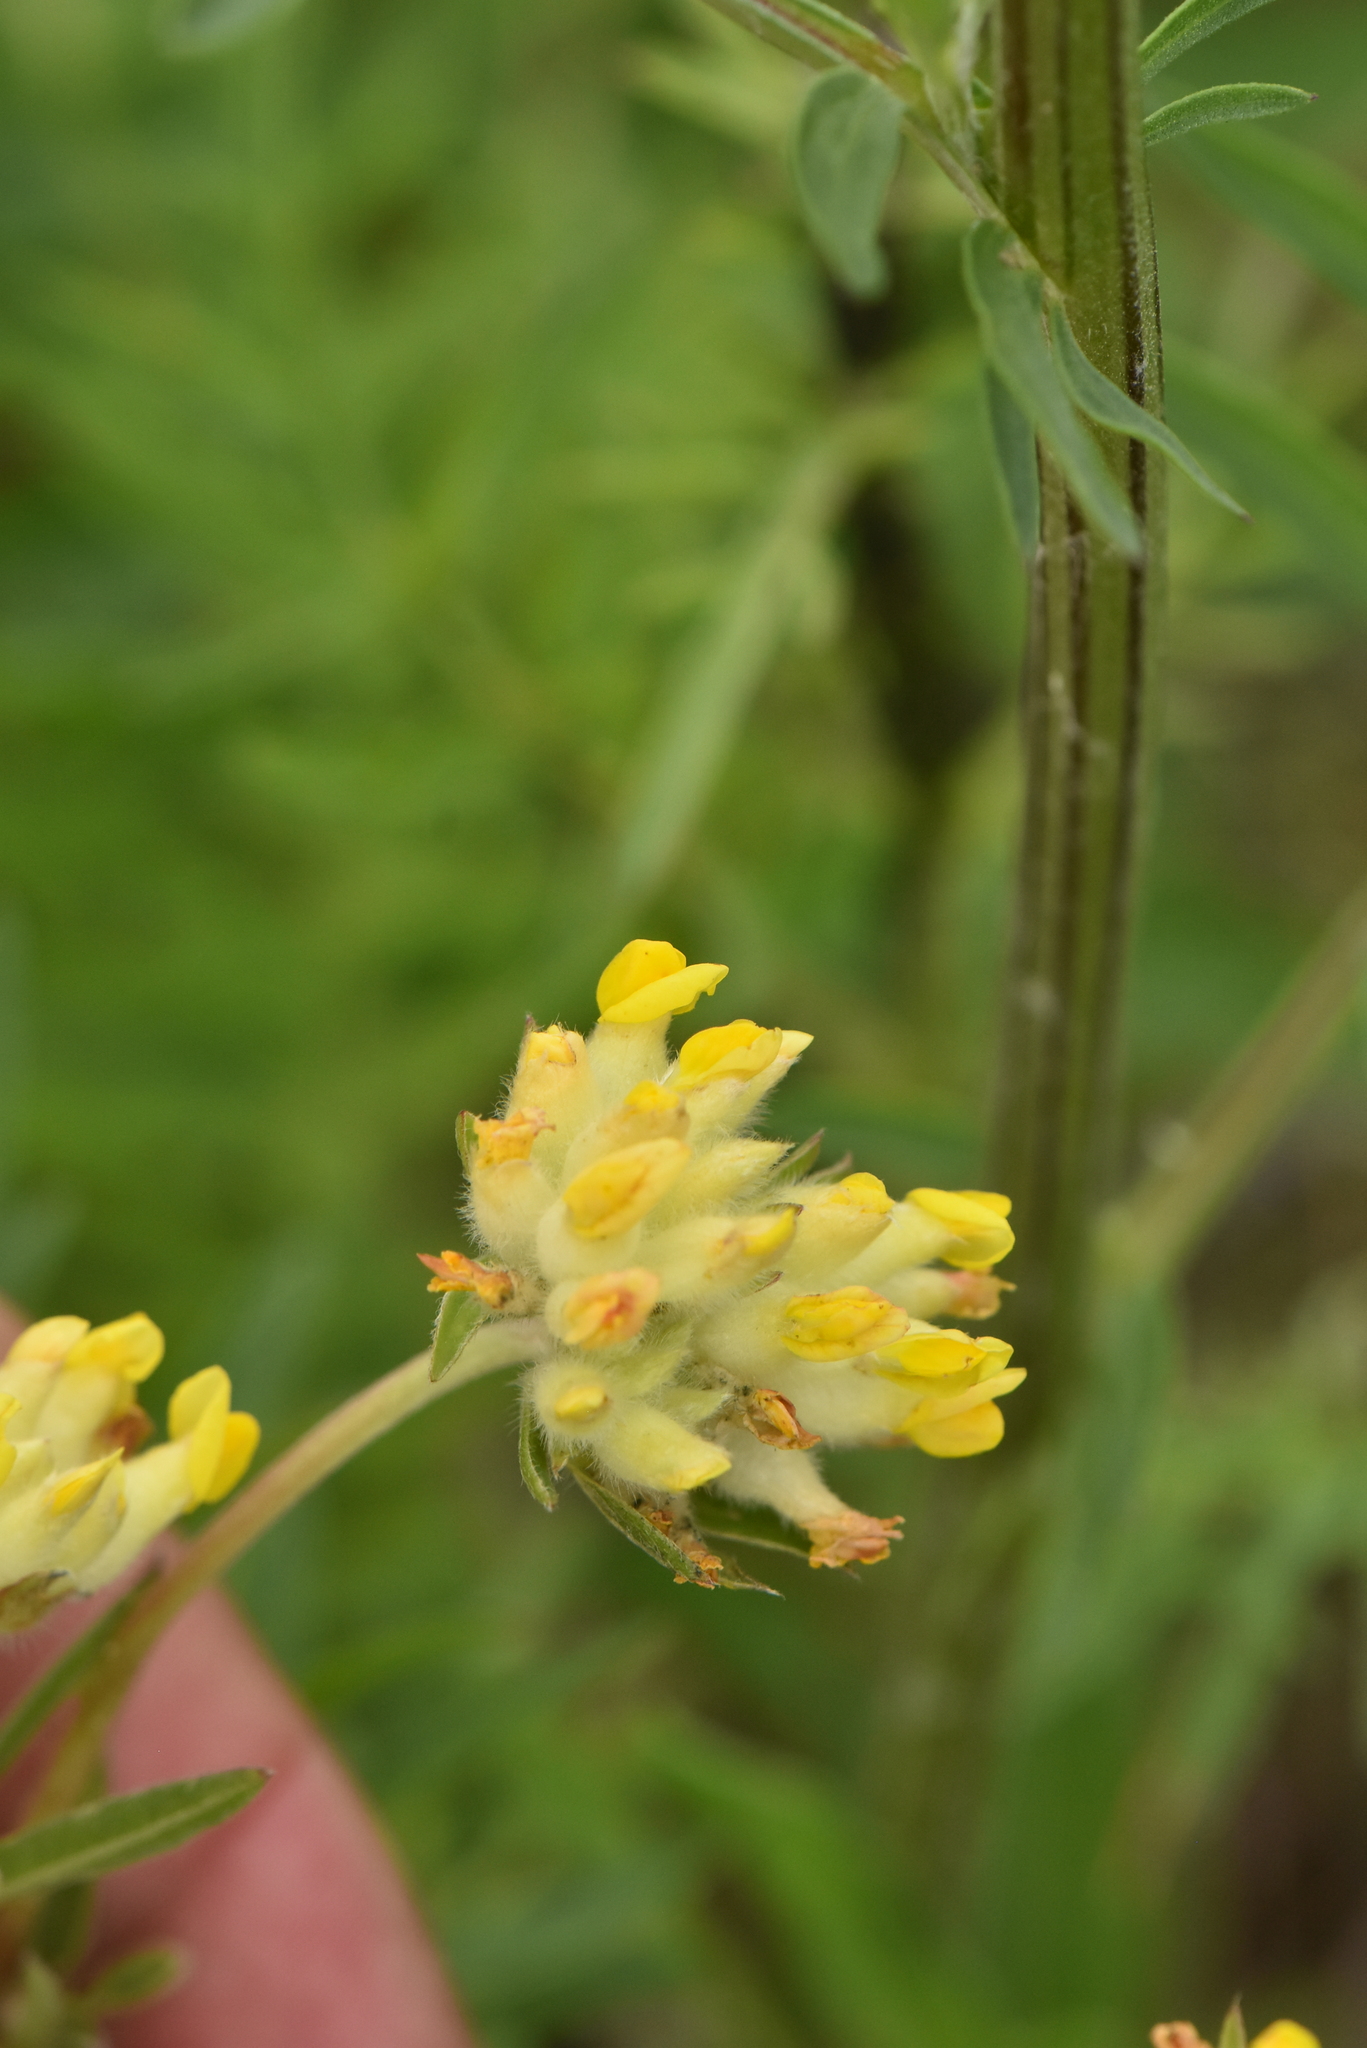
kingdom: Plantae
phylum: Tracheophyta
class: Magnoliopsida
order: Fabales
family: Fabaceae
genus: Anthyllis
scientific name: Anthyllis vulneraria
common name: Kidney vetch
